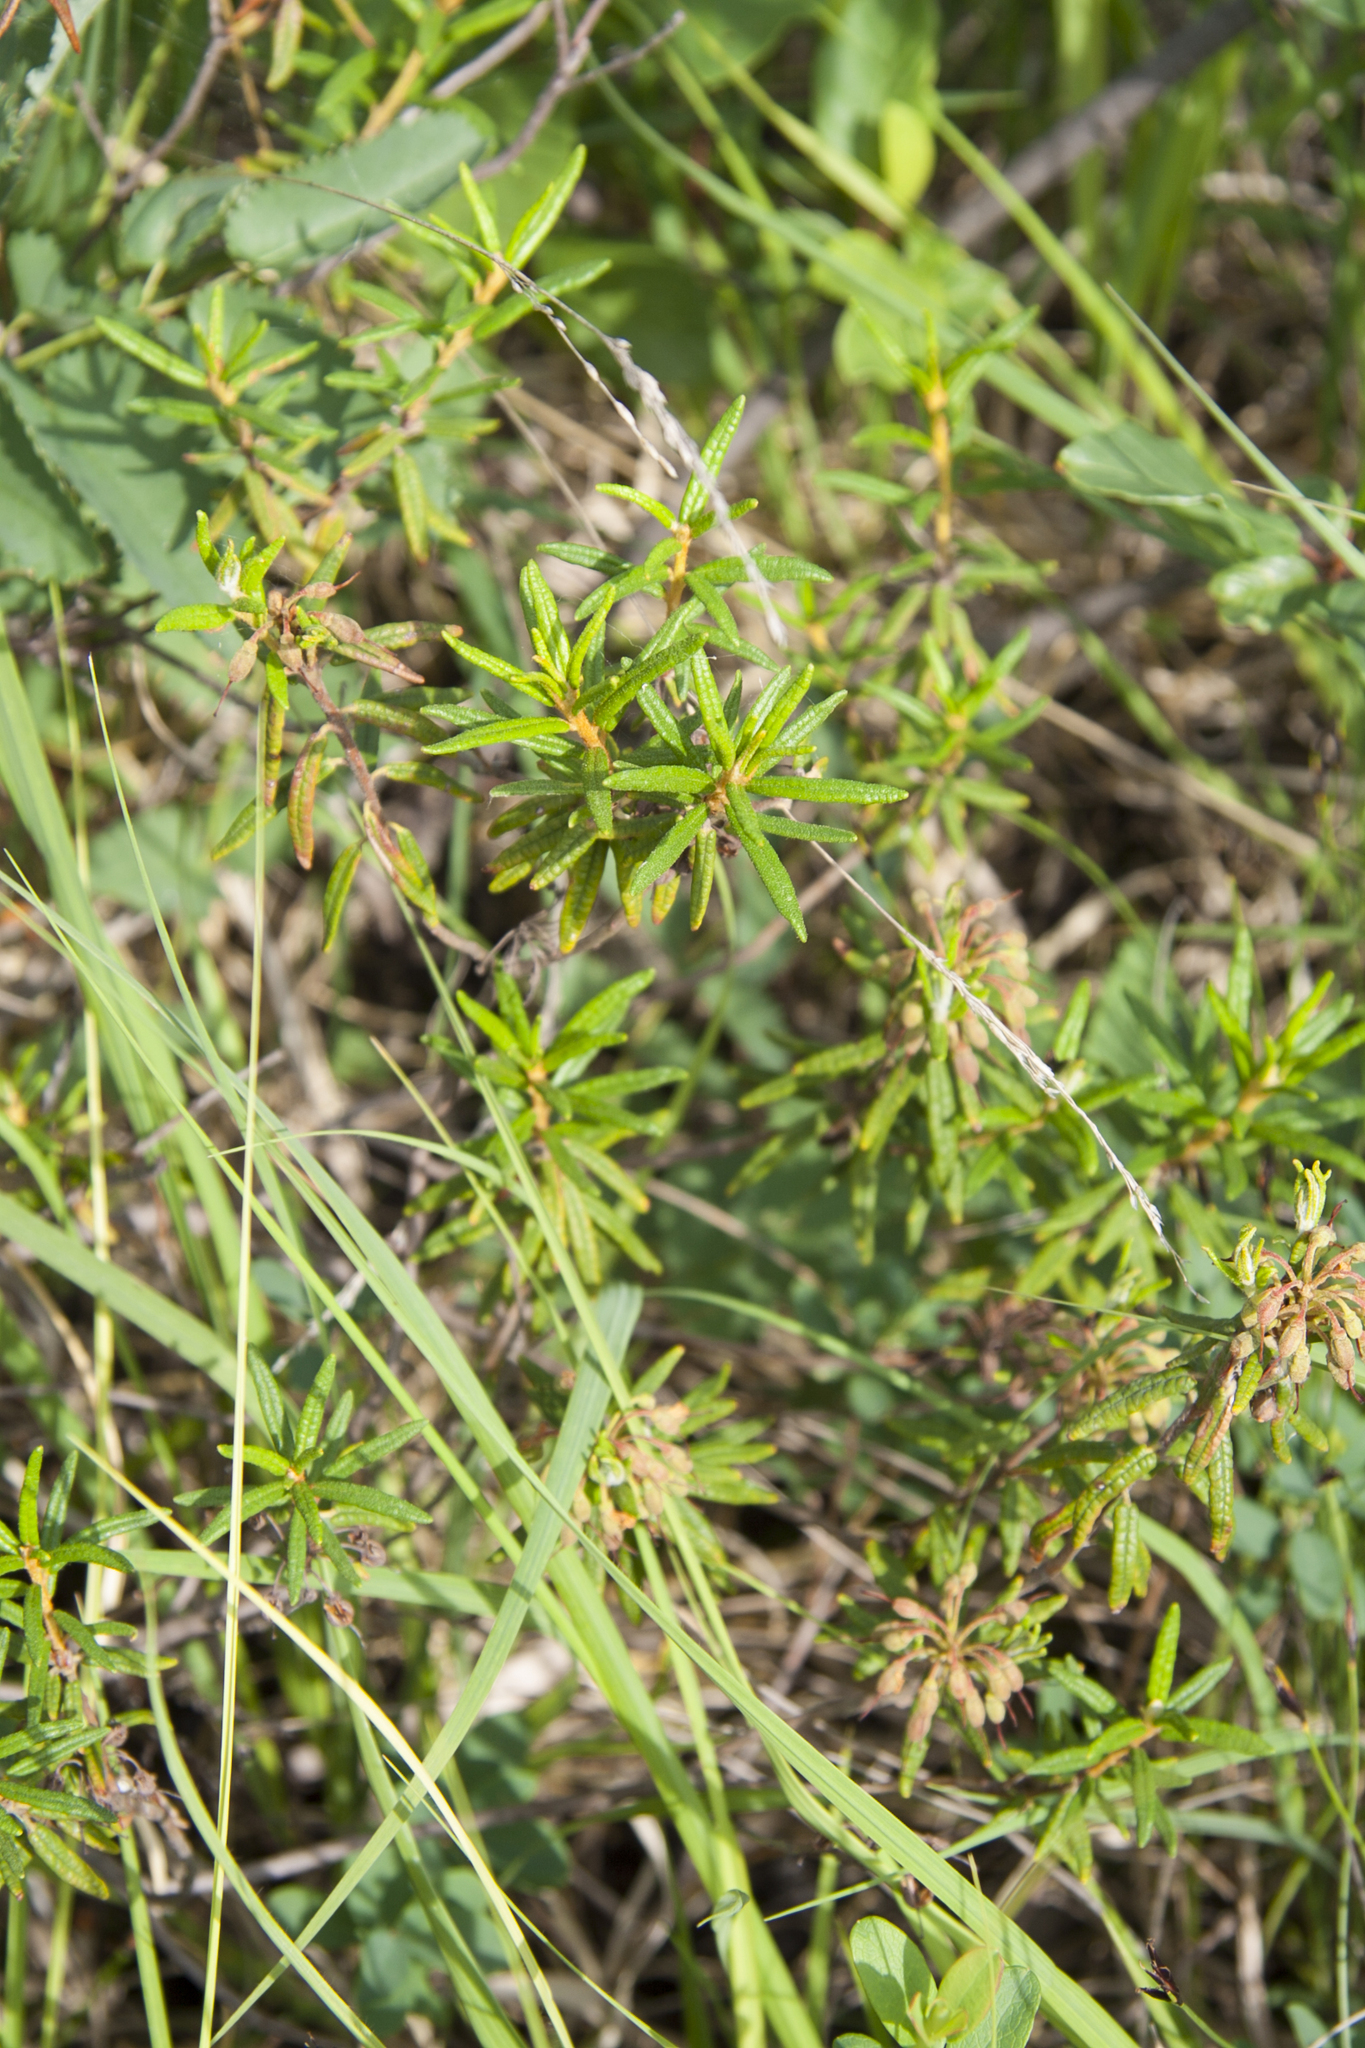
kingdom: Plantae
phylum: Tracheophyta
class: Magnoliopsida
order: Ericales
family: Ericaceae
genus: Rhododendron
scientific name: Rhododendron tomentosum
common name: Marsh labrador tea
